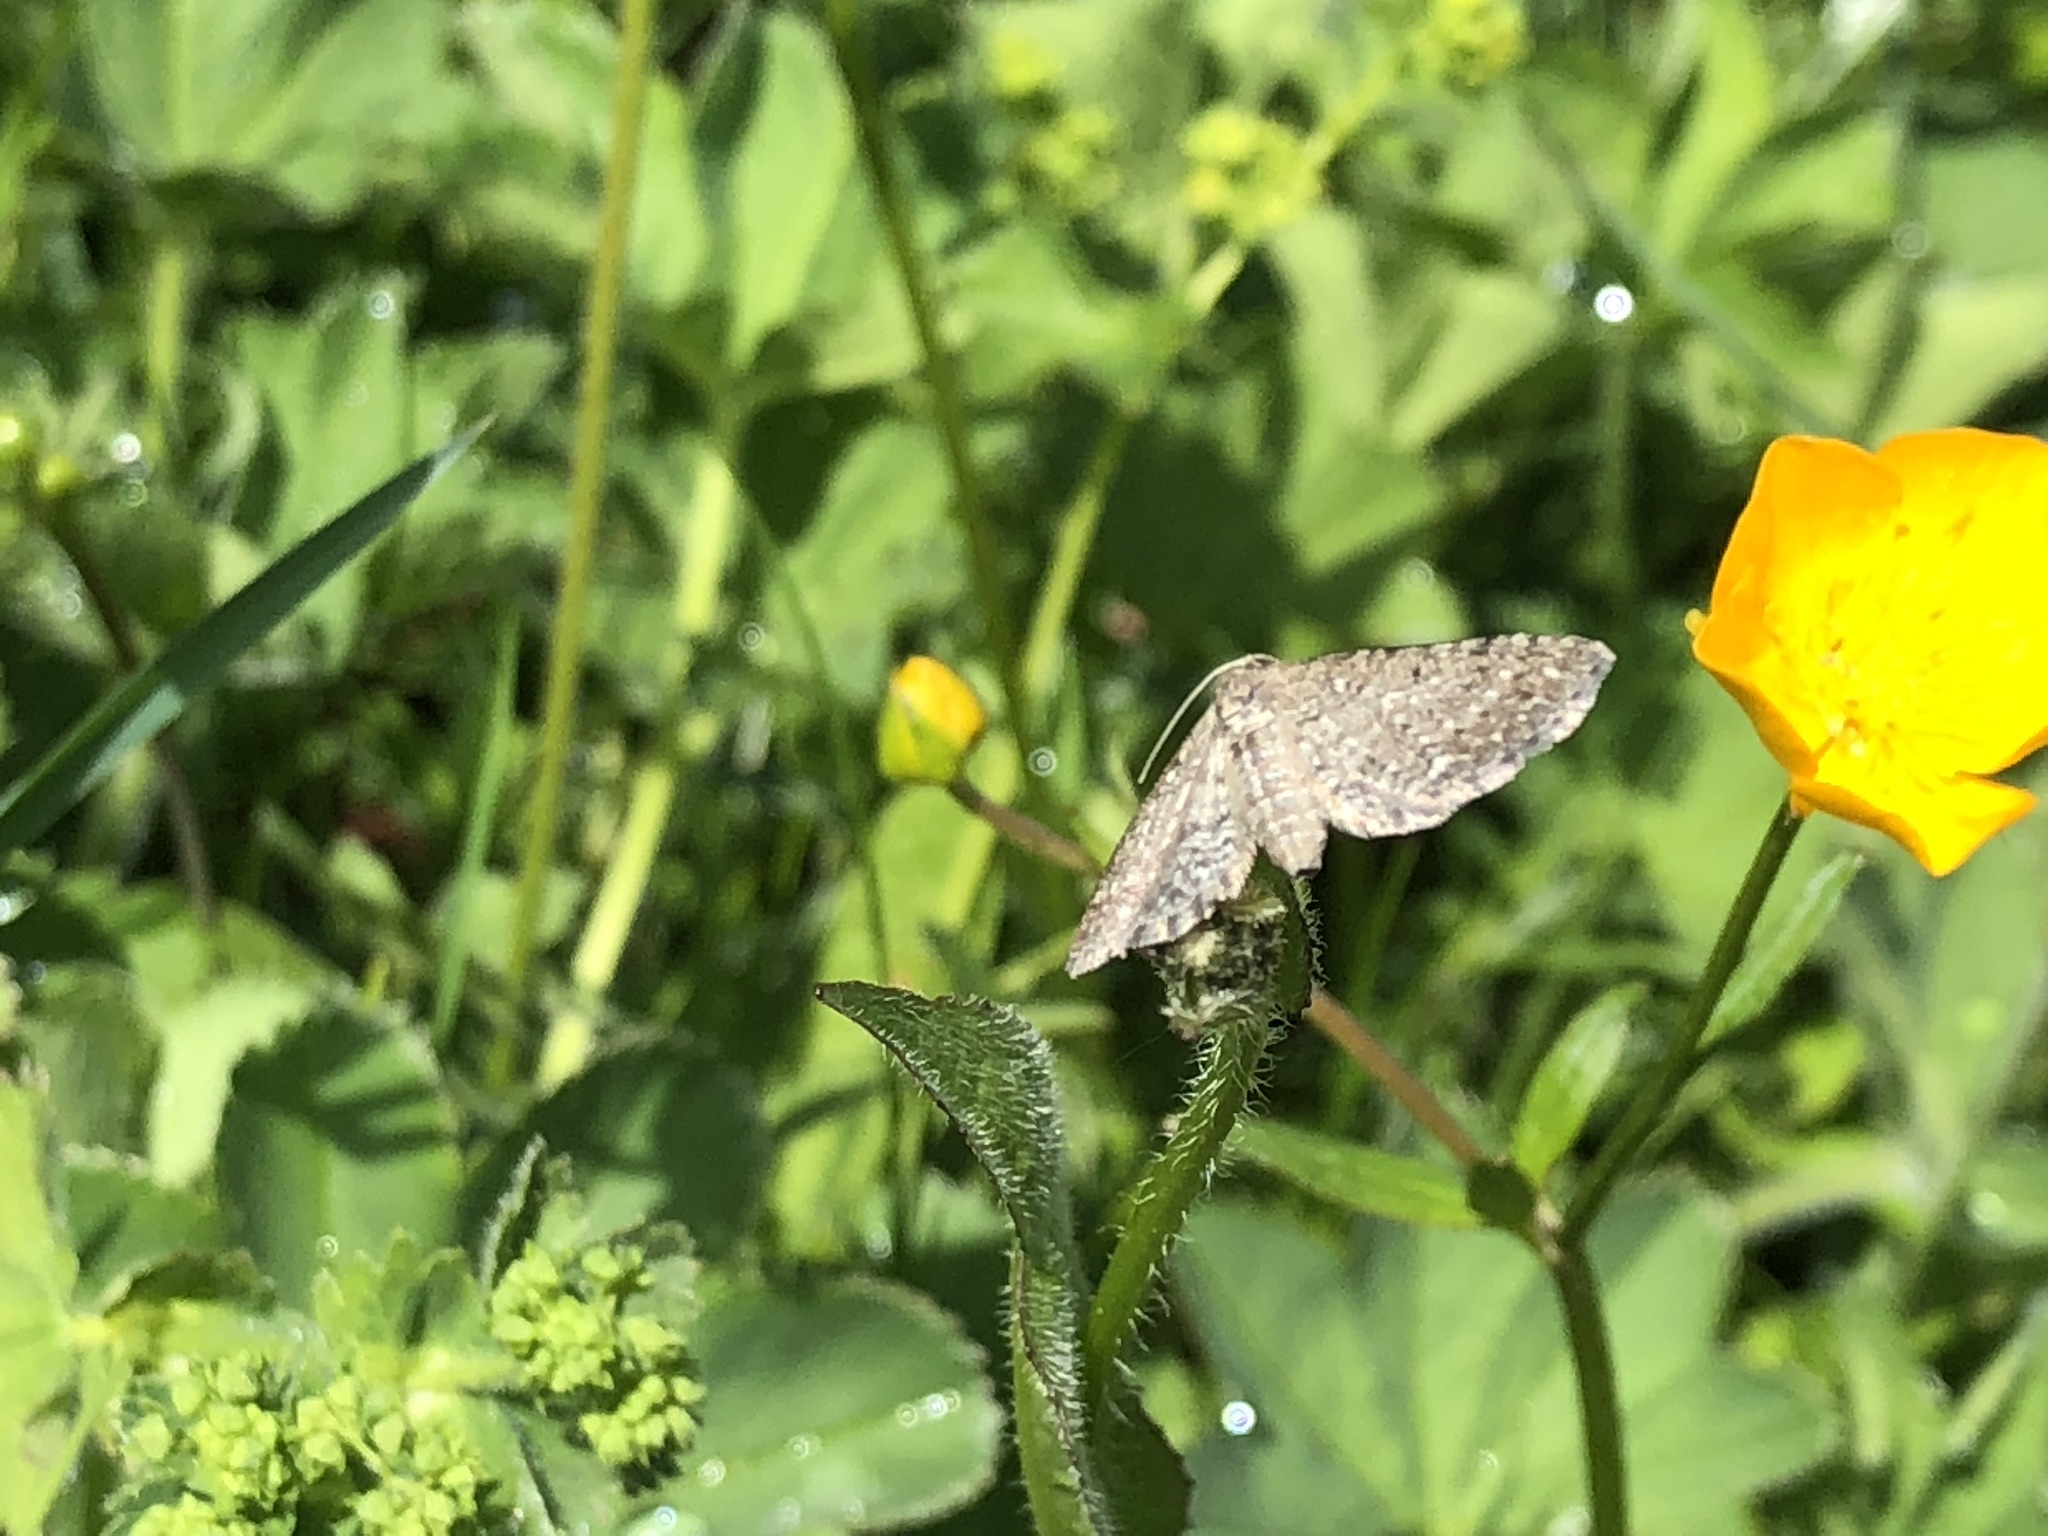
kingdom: Animalia
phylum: Arthropoda
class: Insecta
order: Lepidoptera
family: Geometridae
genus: Eupithecia
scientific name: Eupithecia satyrata
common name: Satyr pug
